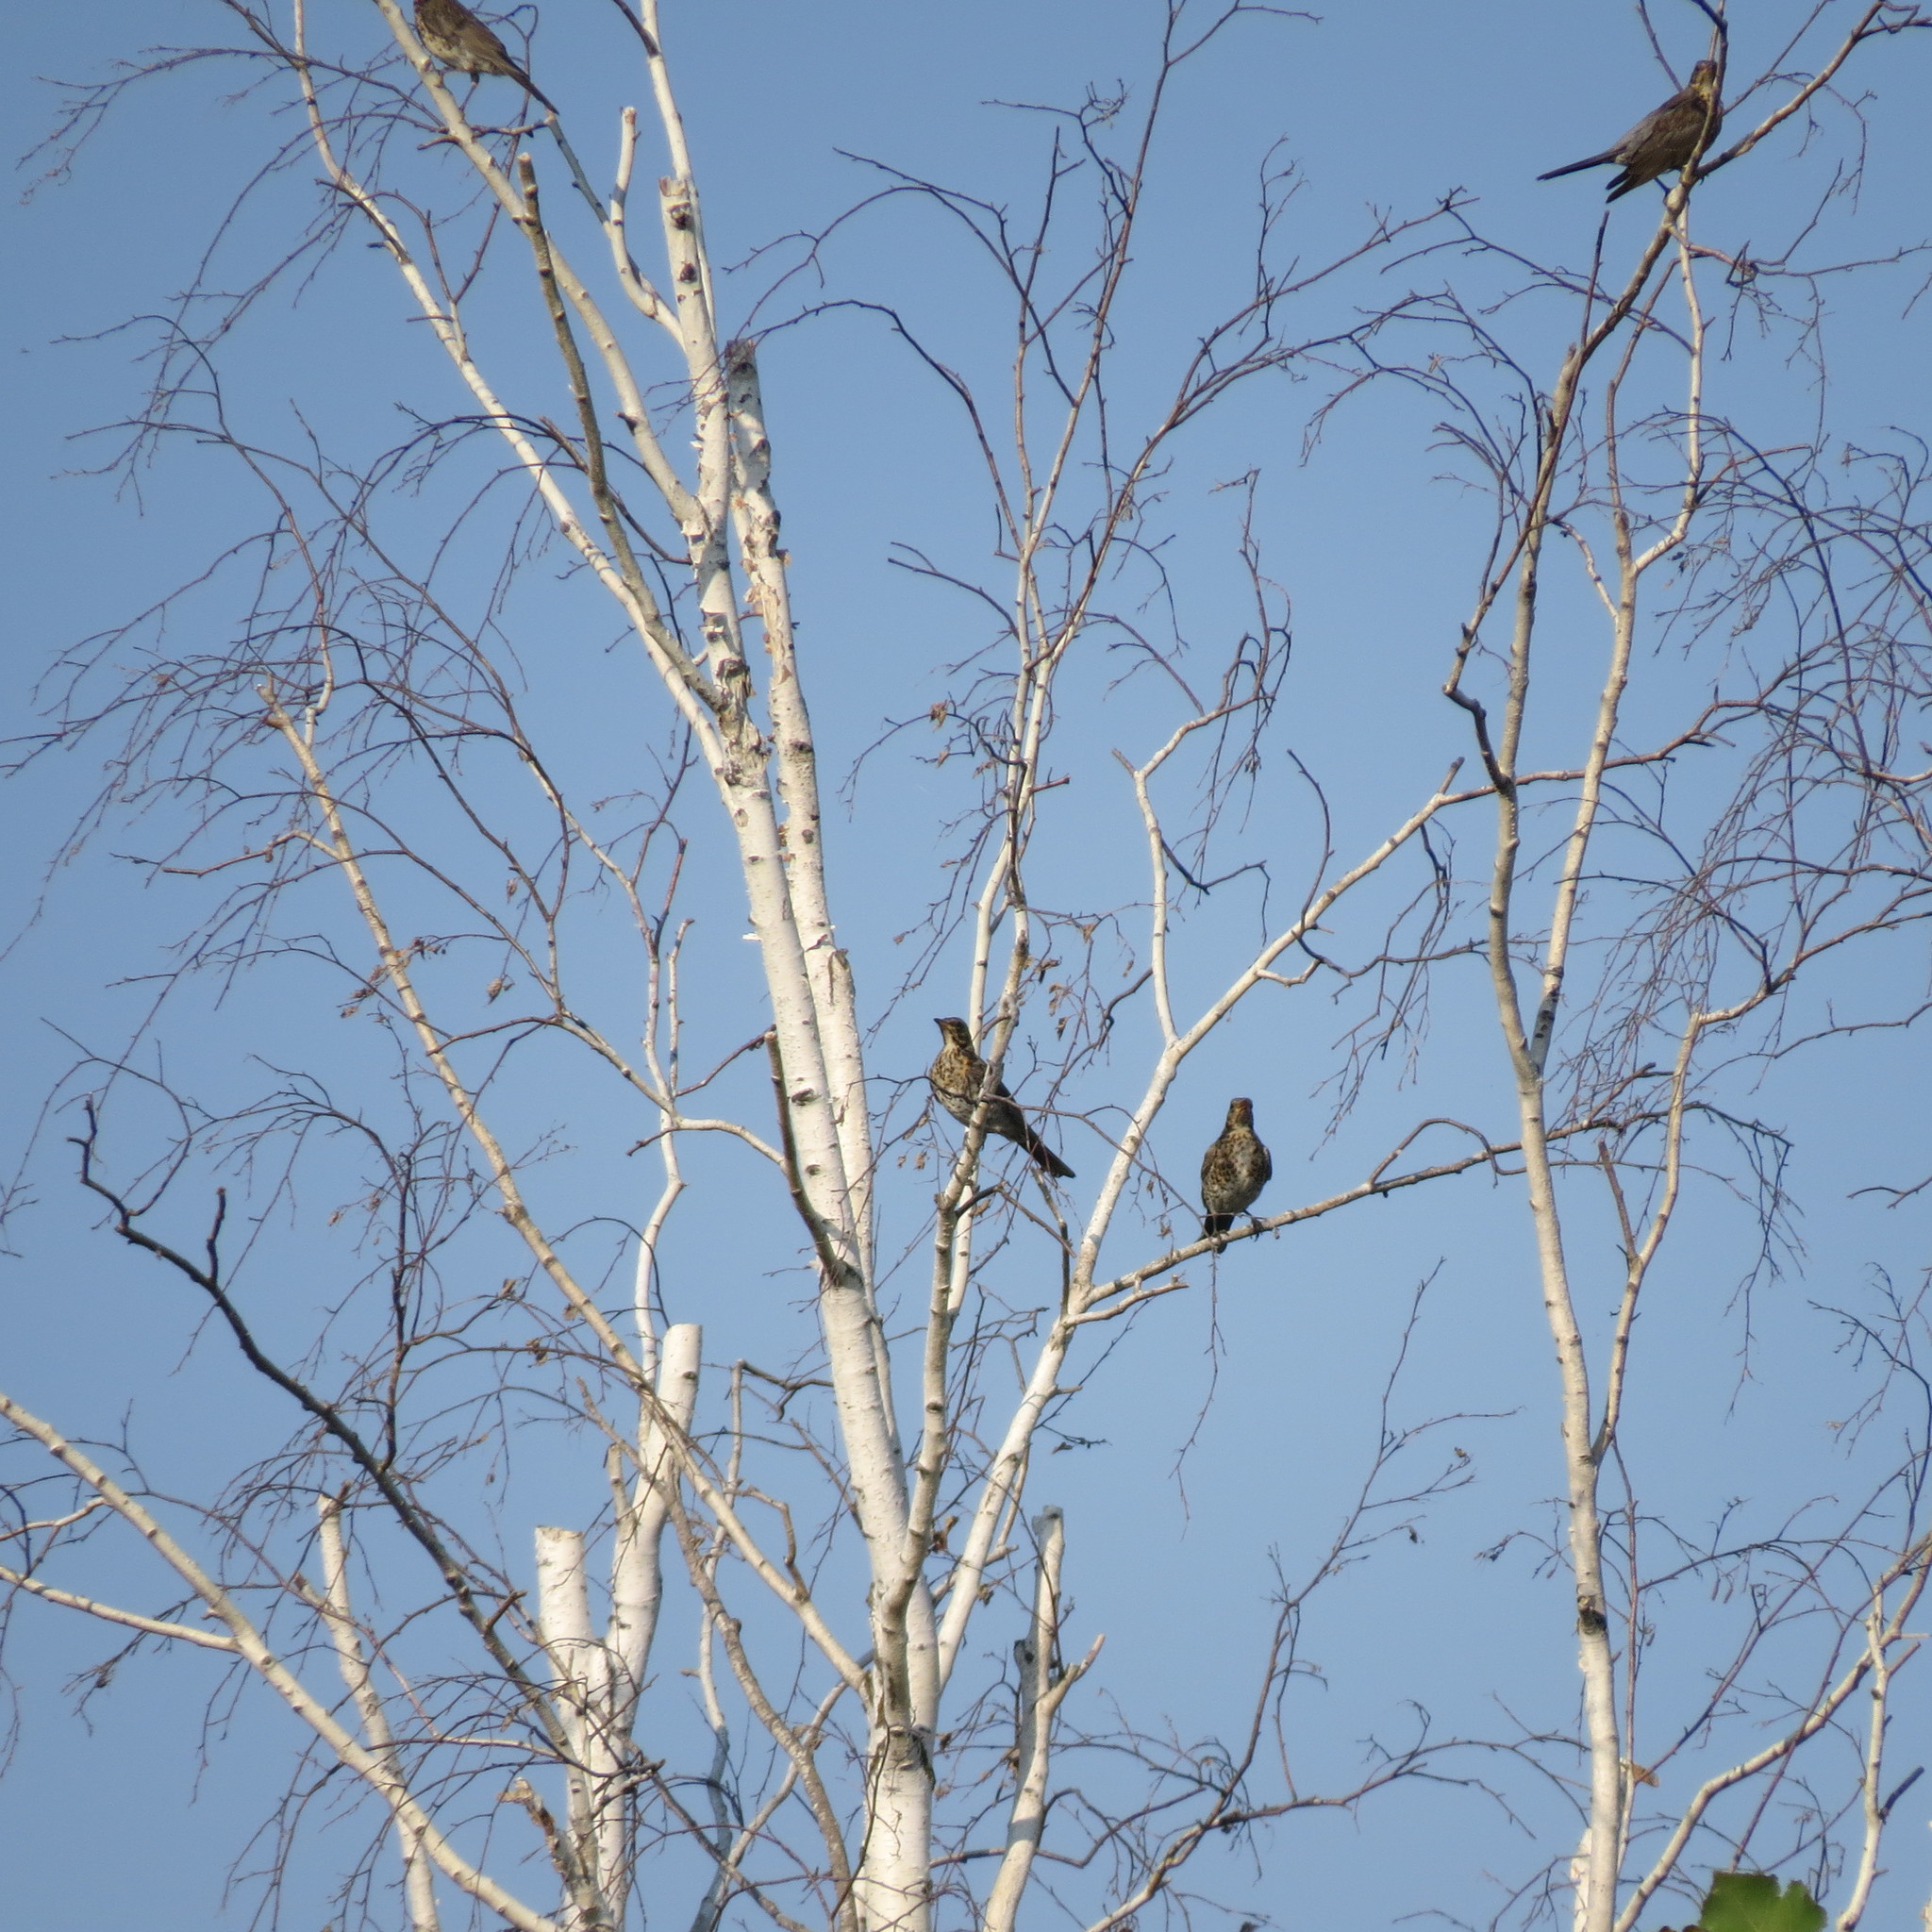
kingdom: Animalia
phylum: Chordata
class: Aves
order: Passeriformes
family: Turdidae
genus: Turdus
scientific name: Turdus pilaris
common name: Fieldfare
